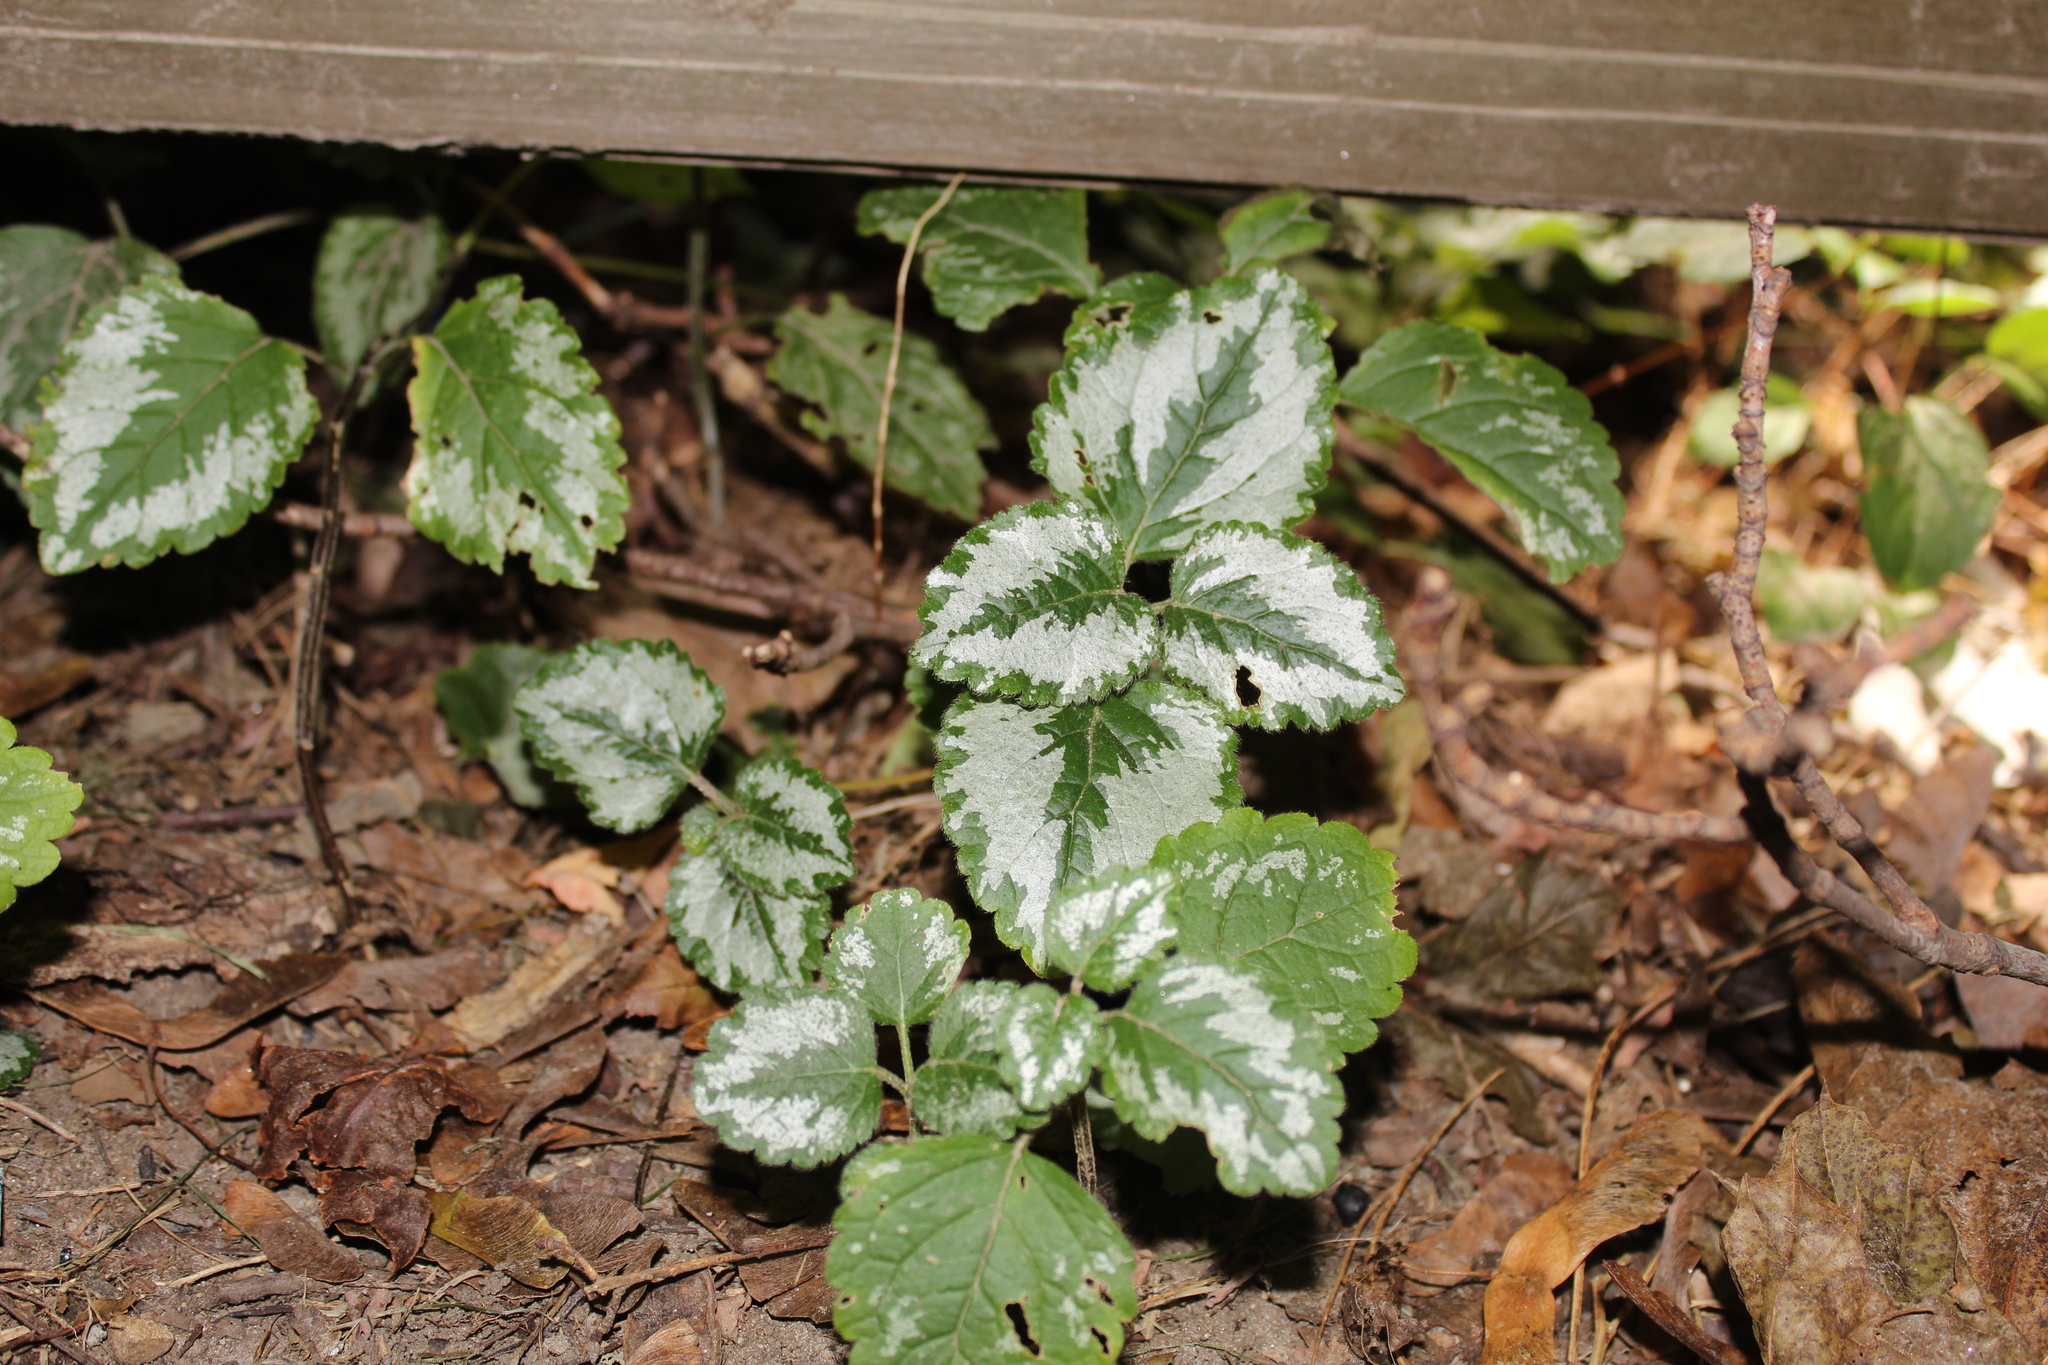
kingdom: Plantae
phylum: Tracheophyta
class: Magnoliopsida
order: Lamiales
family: Lamiaceae
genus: Lamium
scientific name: Lamium galeobdolon
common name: Yellow archangel
